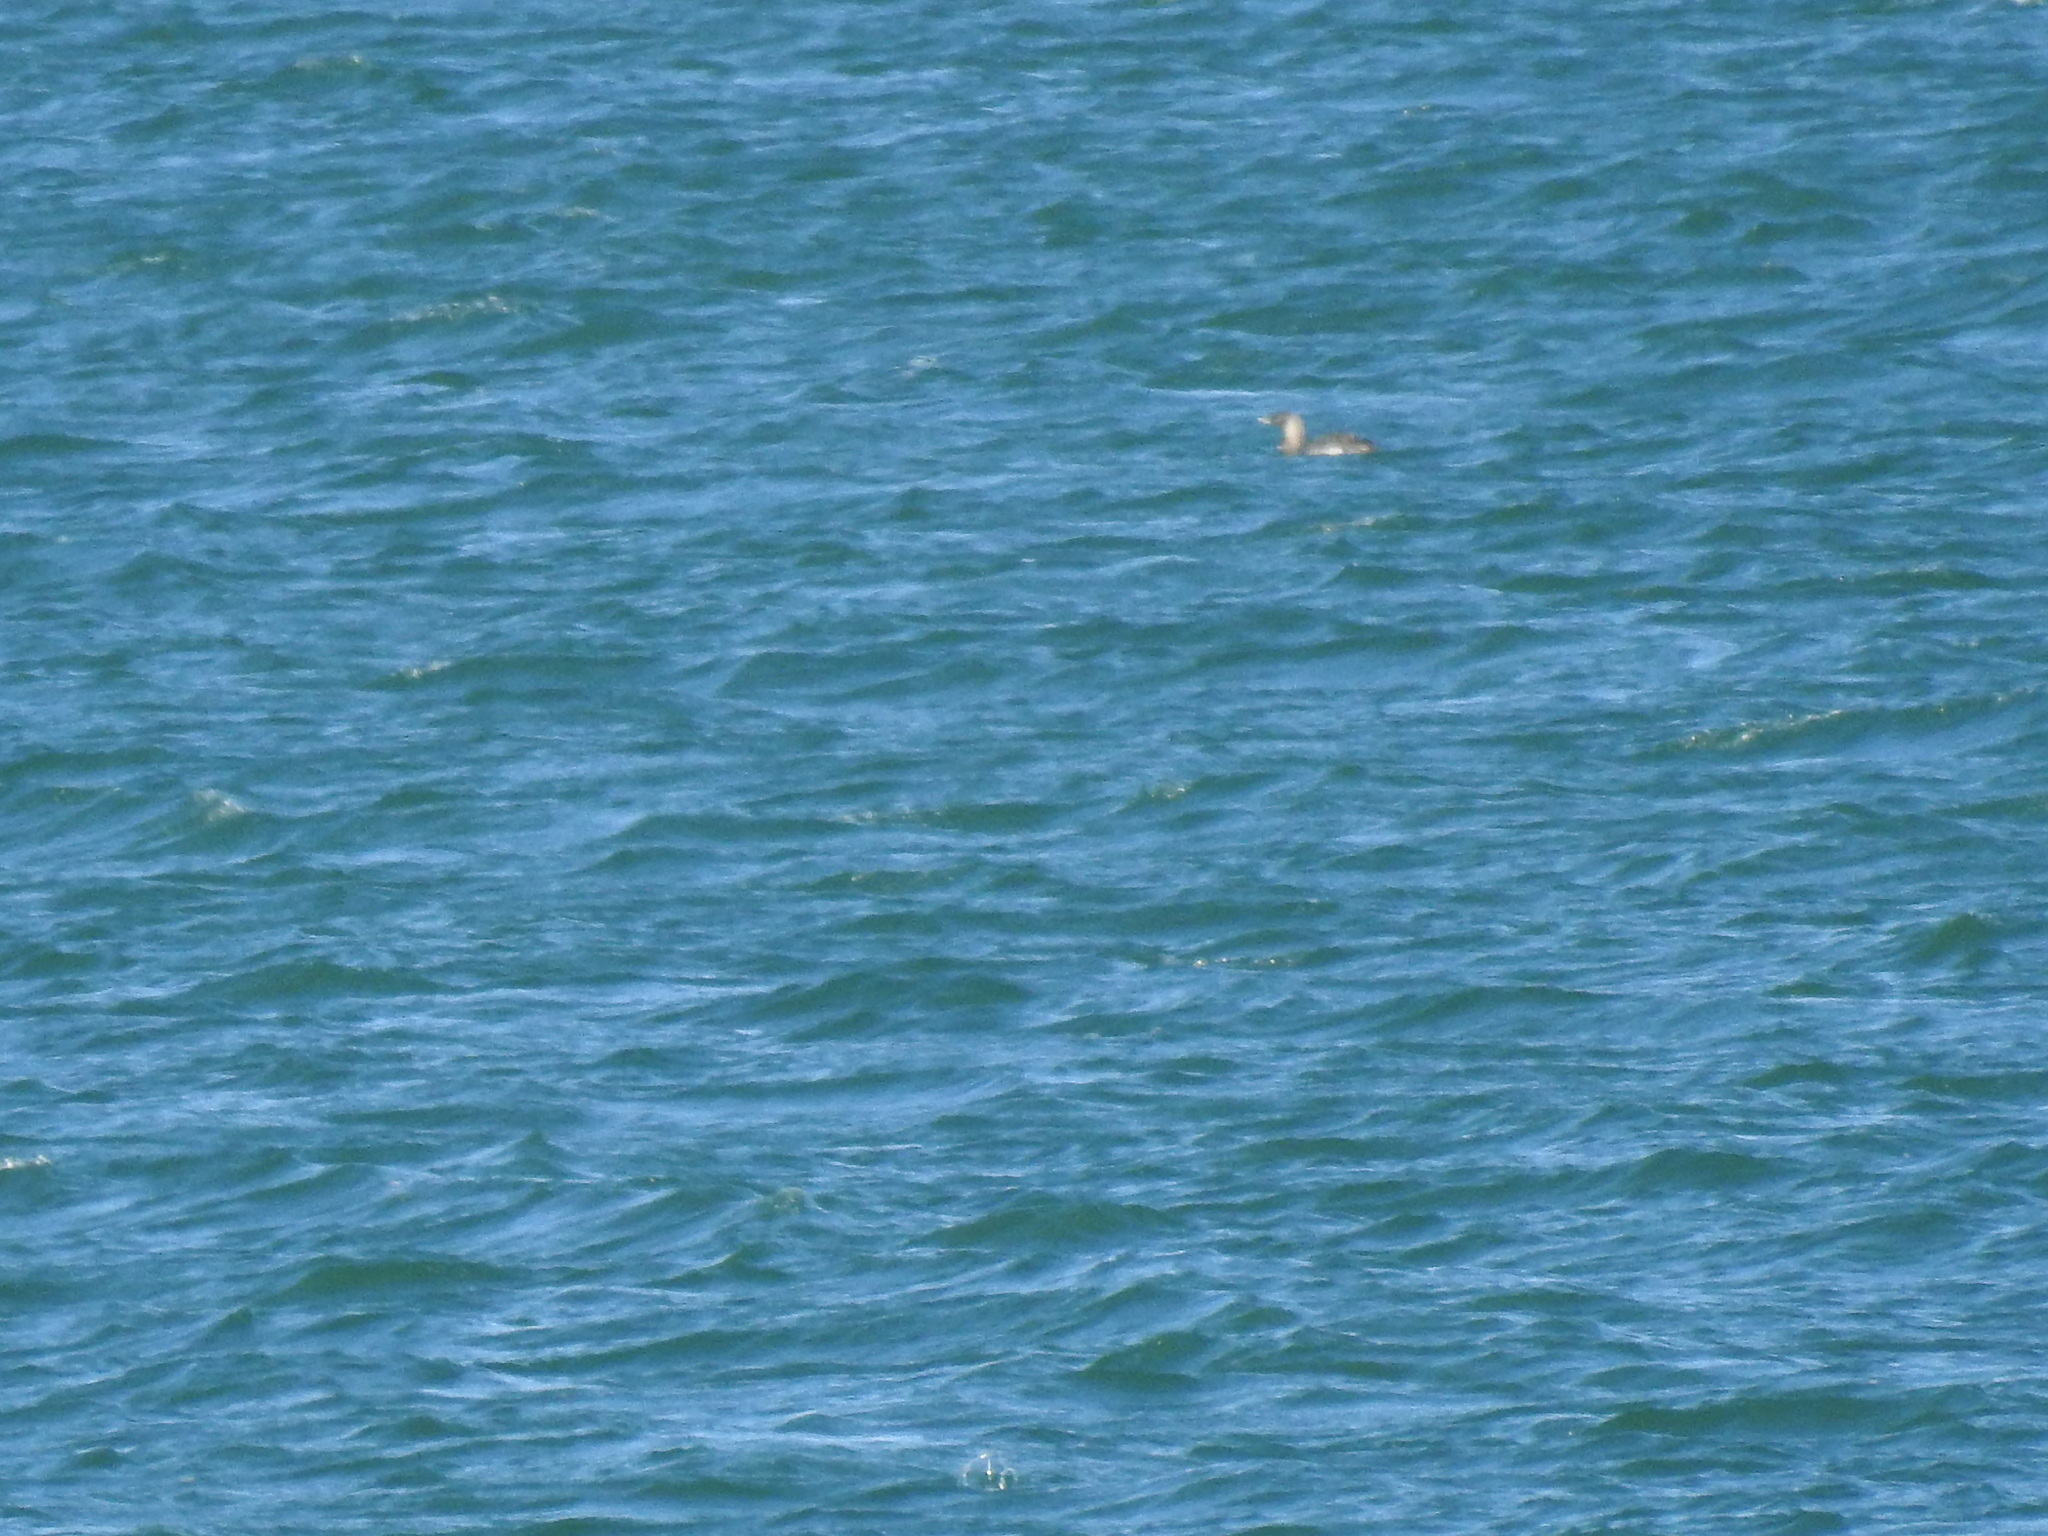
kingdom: Animalia
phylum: Chordata
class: Aves
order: Gaviiformes
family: Gaviidae
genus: Gavia
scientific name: Gavia adamsii
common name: Yellow-billed loon
